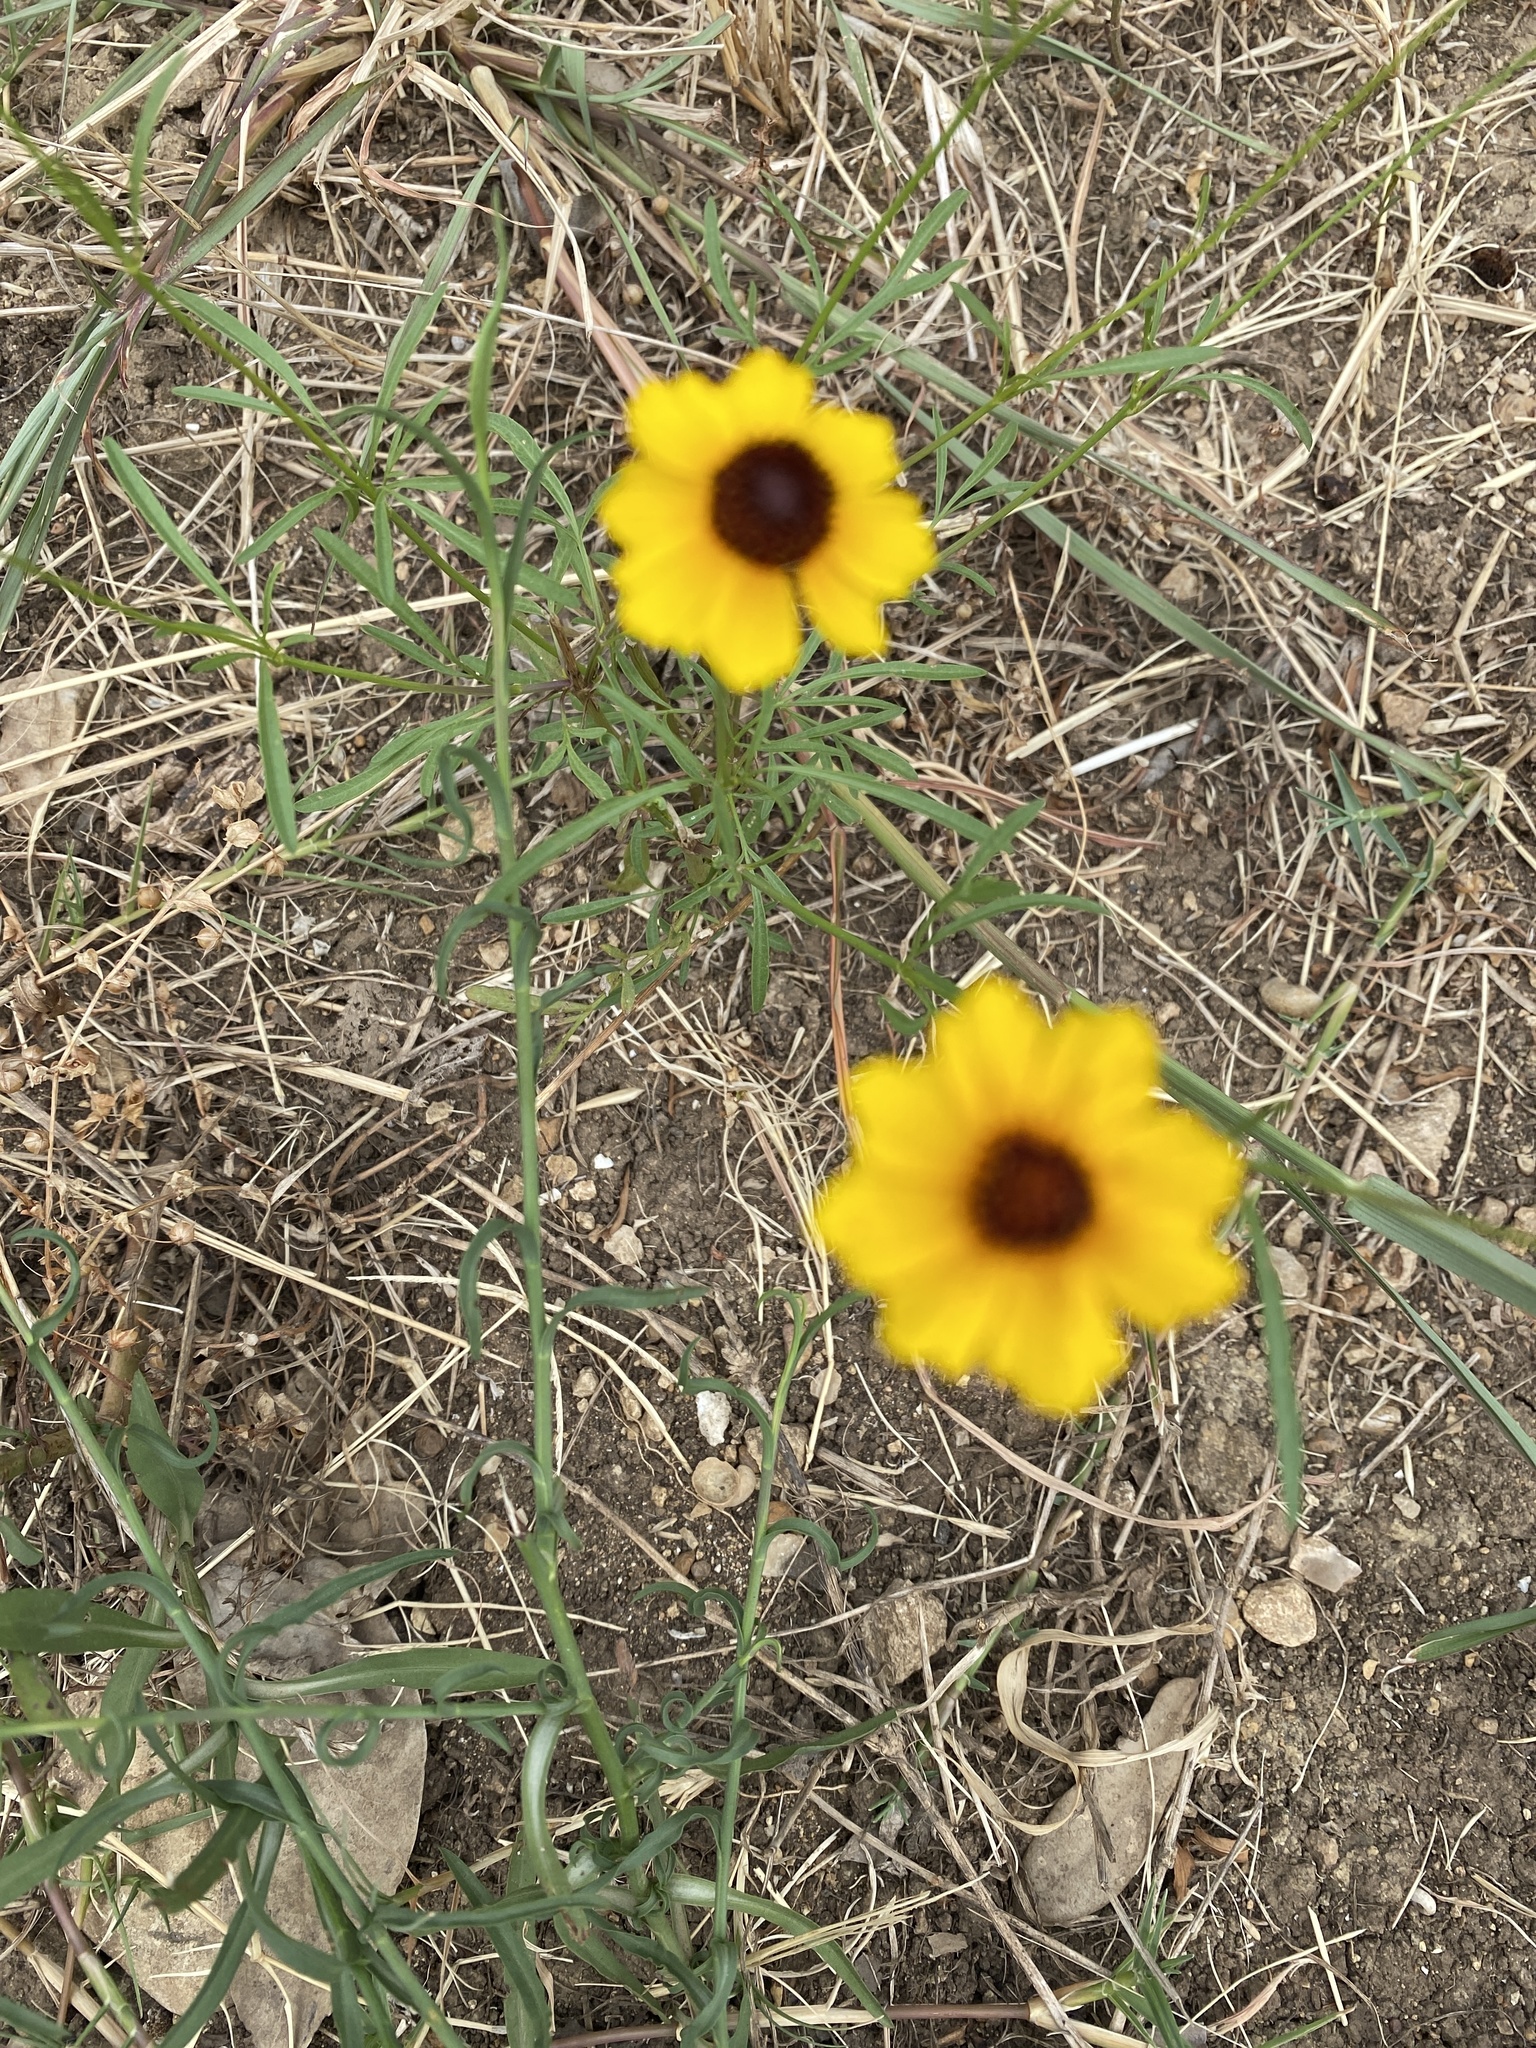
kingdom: Plantae
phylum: Tracheophyta
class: Magnoliopsida
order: Asterales
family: Asteraceae
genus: Coreopsis
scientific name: Coreopsis tinctoria
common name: Garden tickseed
